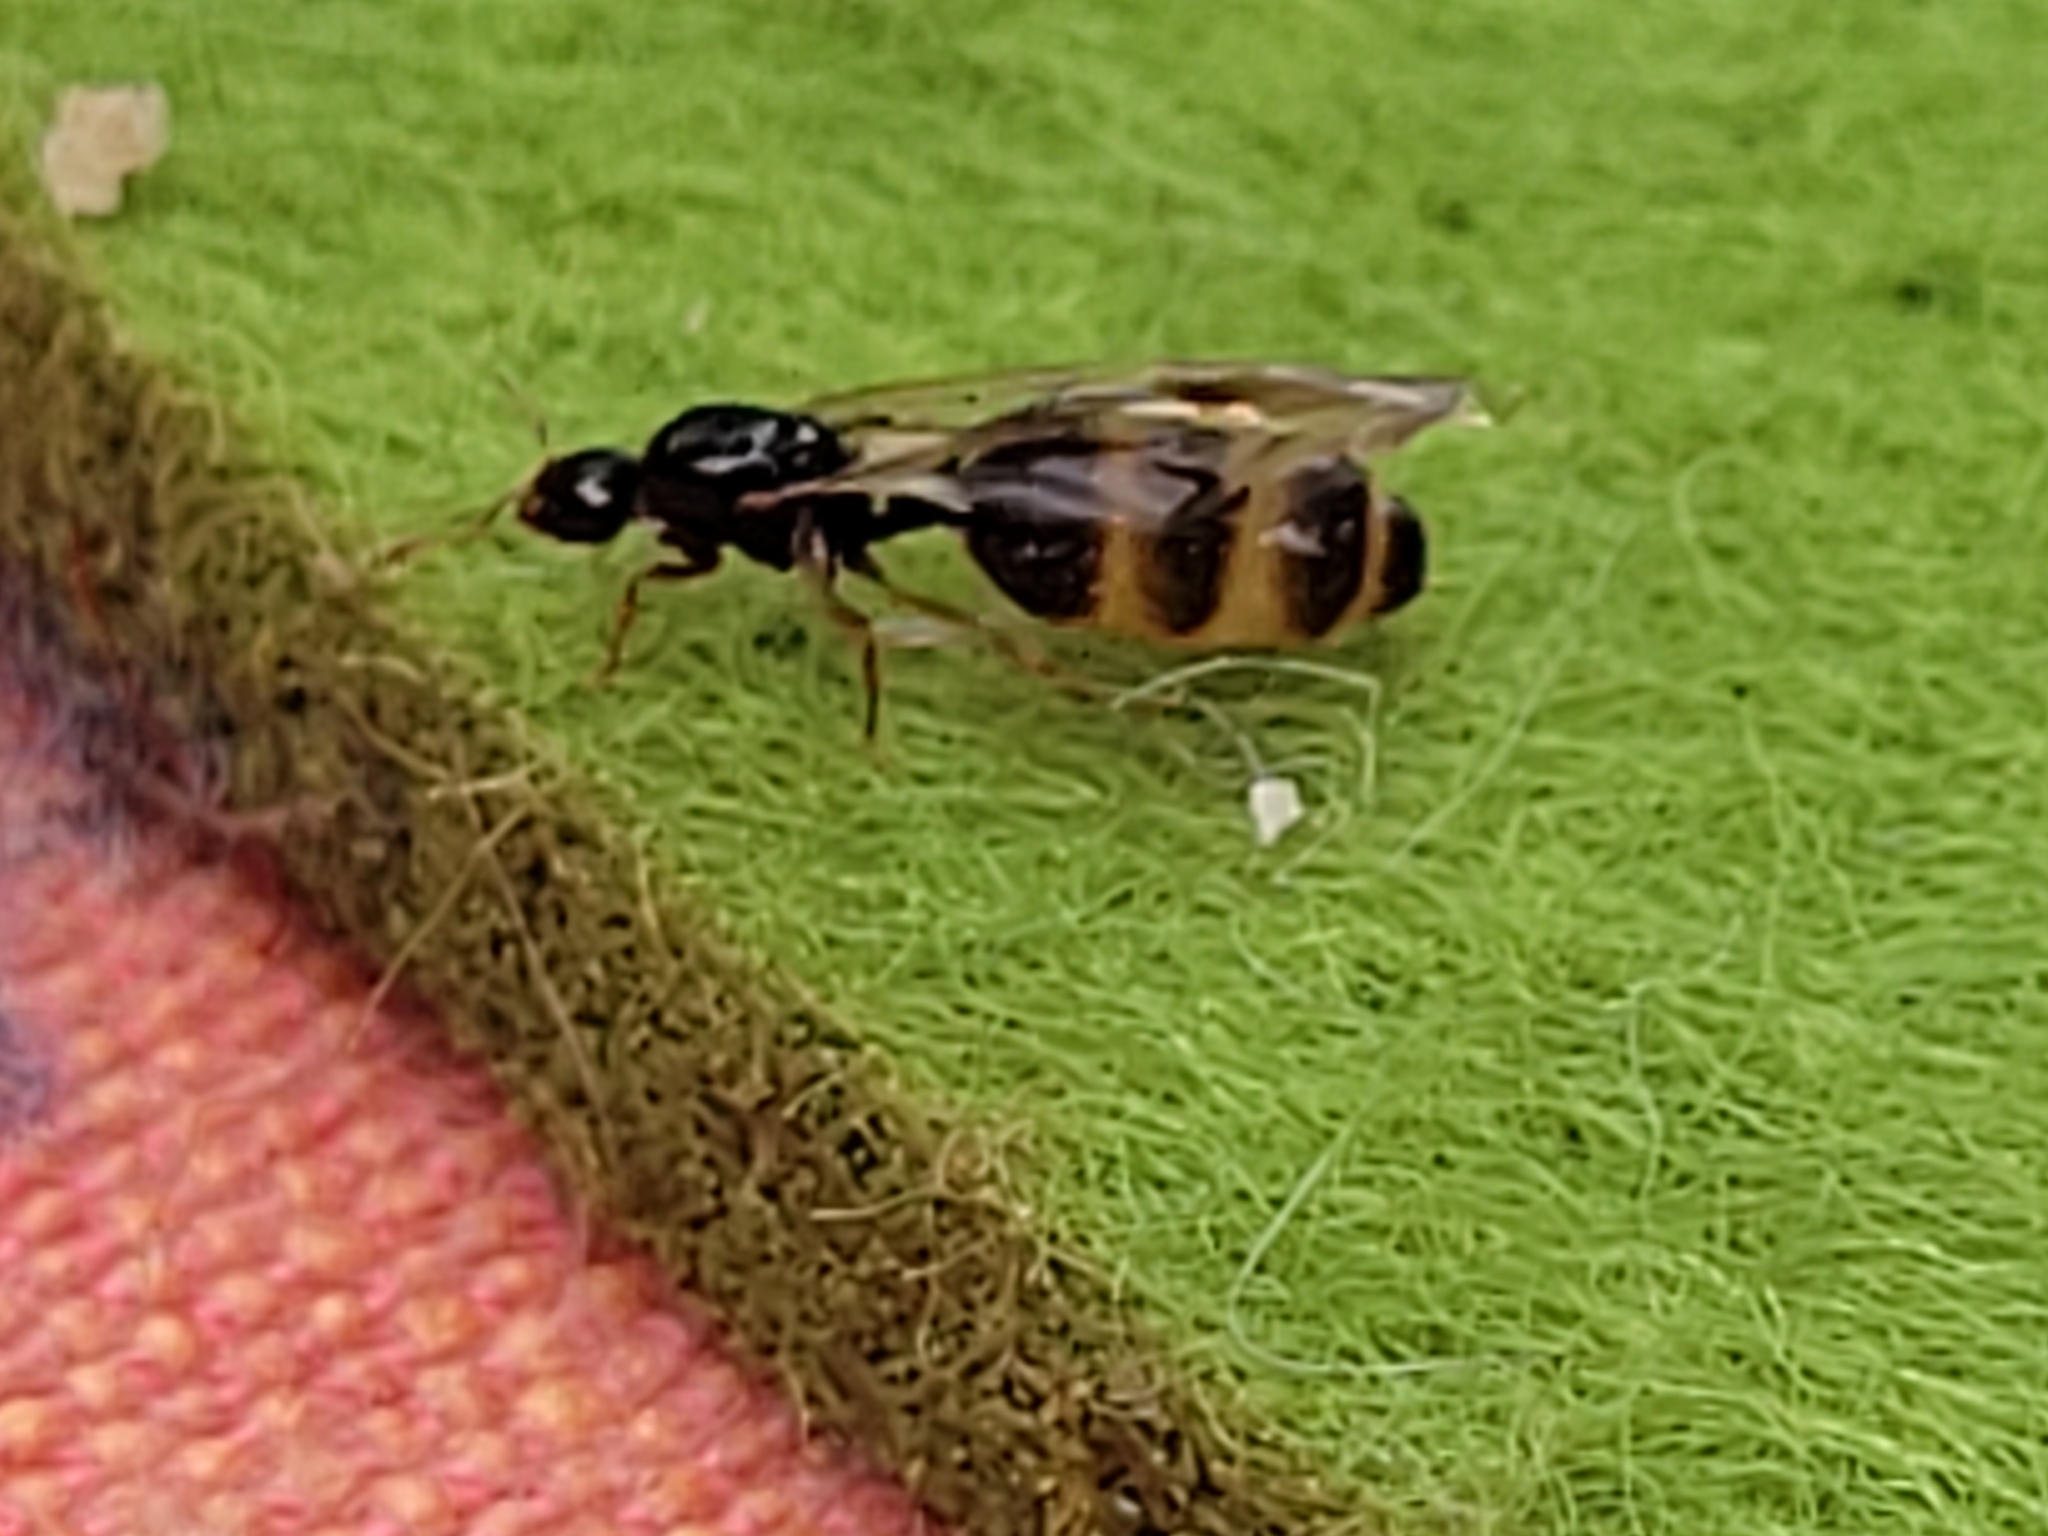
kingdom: Animalia
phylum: Arthropoda
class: Insecta
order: Hymenoptera
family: Formicidae
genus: Solenopsis
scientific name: Solenopsis fugax
